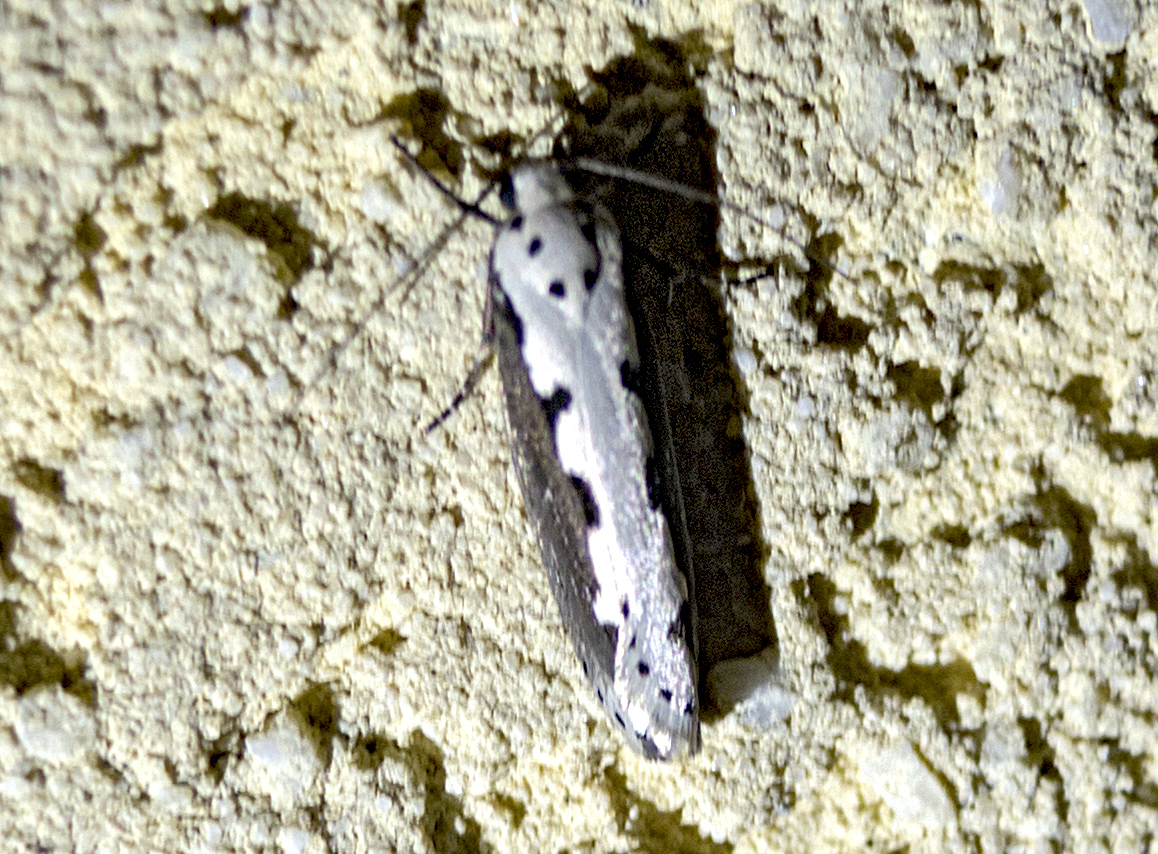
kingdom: Animalia
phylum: Arthropoda
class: Insecta
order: Lepidoptera
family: Ethmiidae
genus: Ethmia
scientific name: Ethmia bipunctella
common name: Bordered ermel
